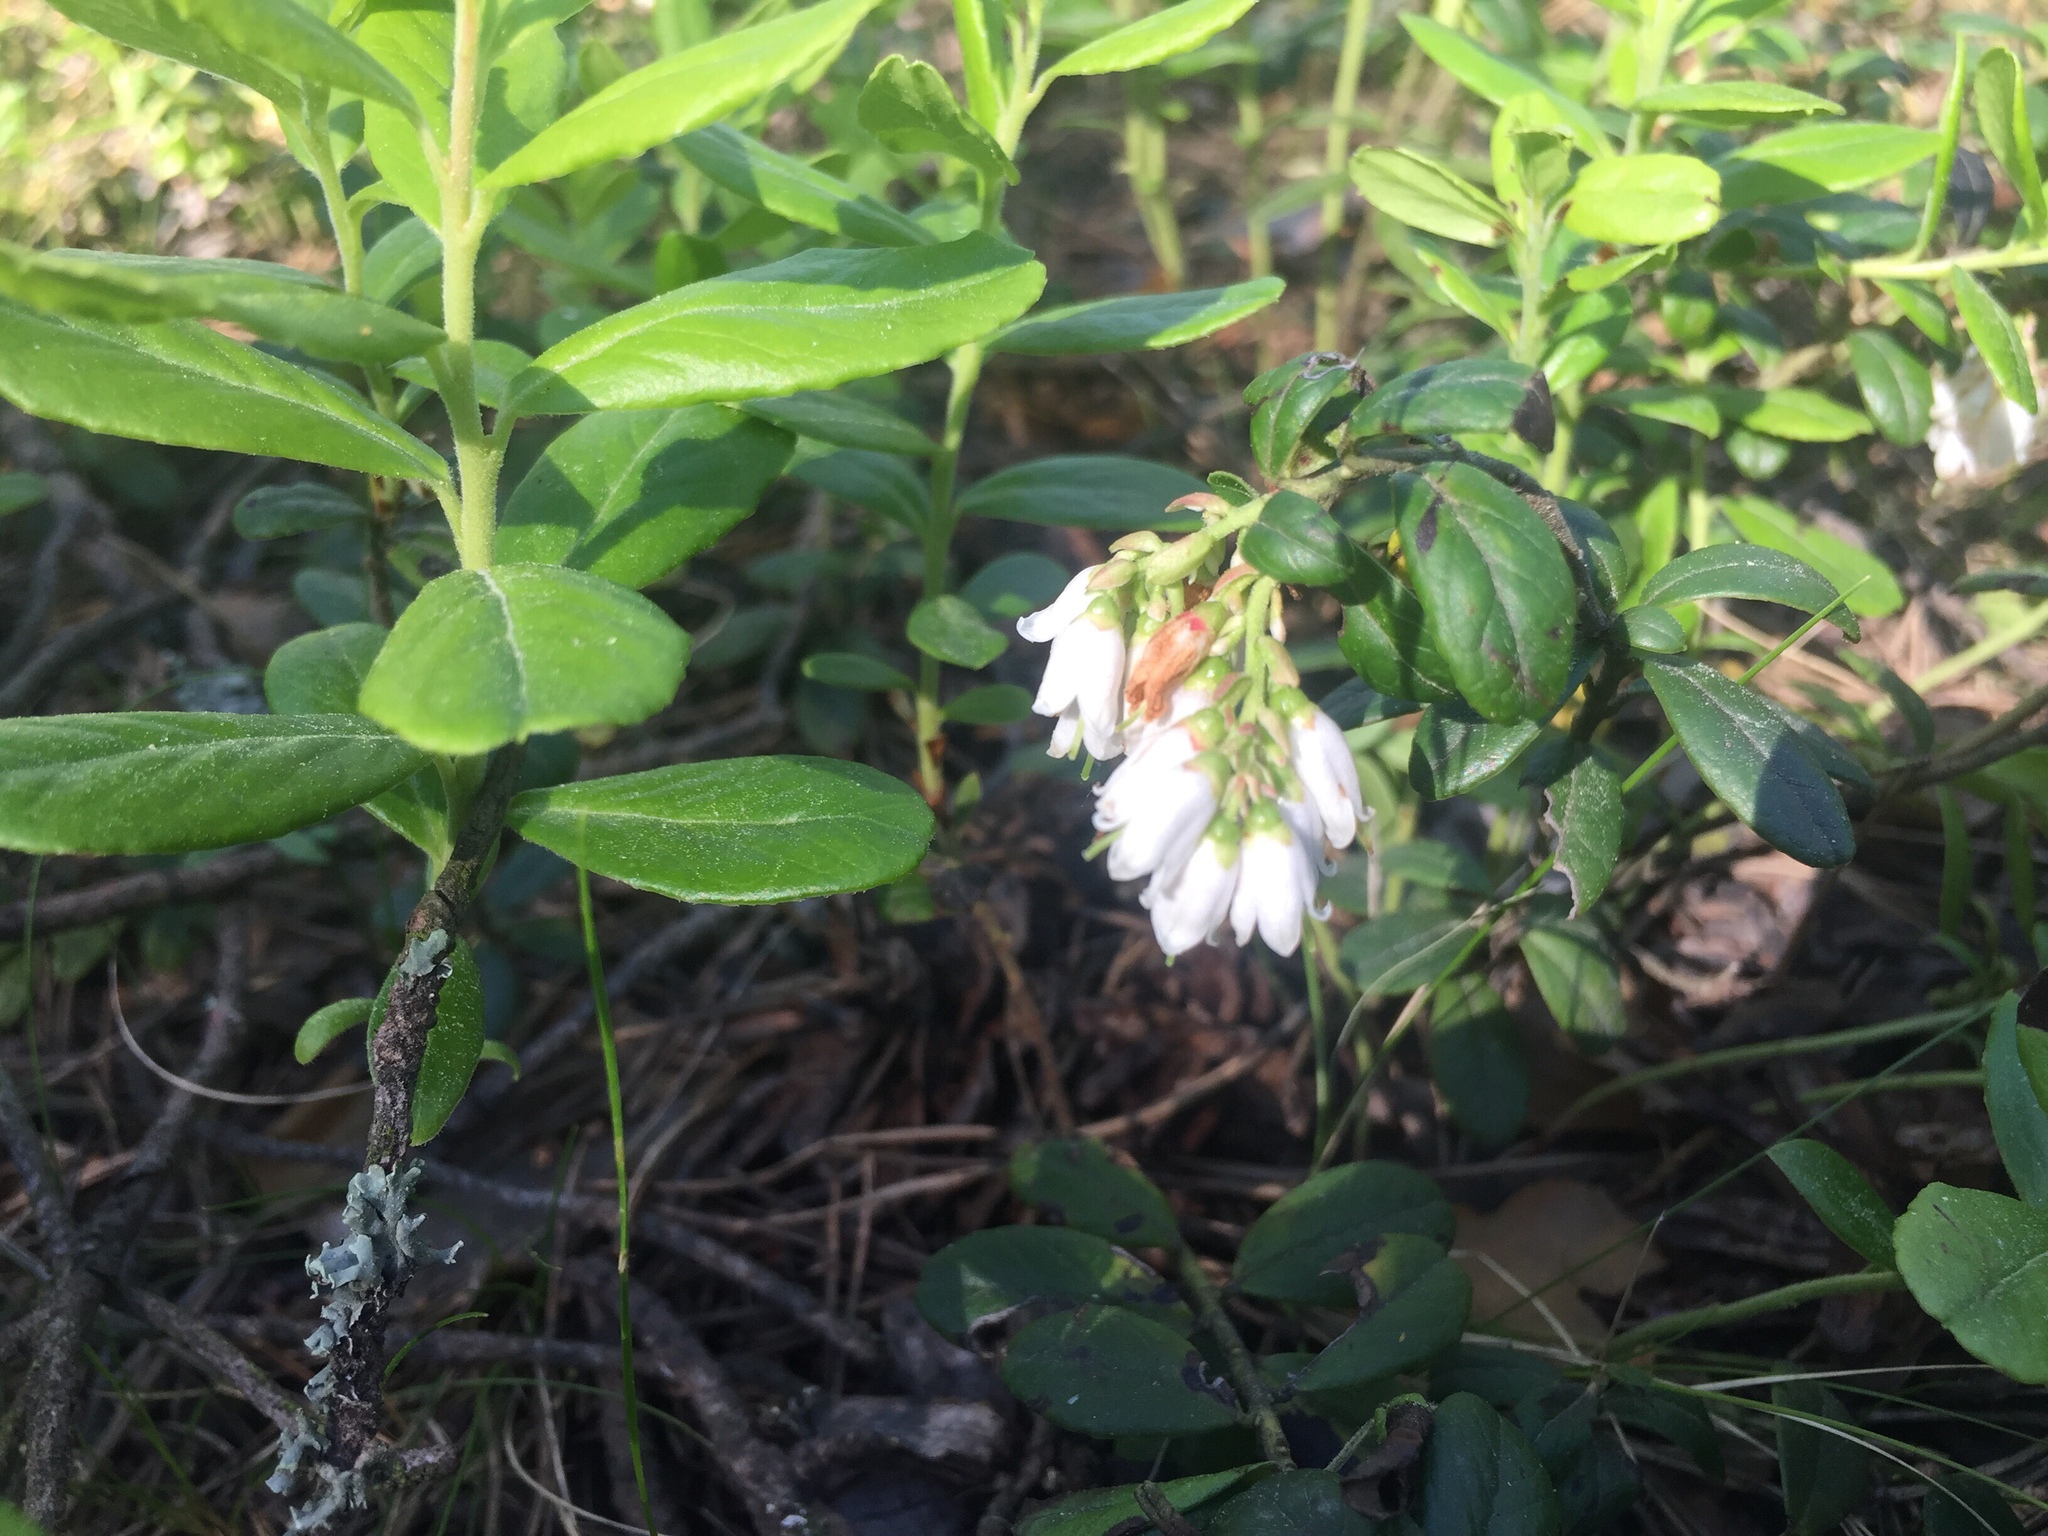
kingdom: Plantae
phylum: Tracheophyta
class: Magnoliopsida
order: Ericales
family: Ericaceae
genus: Vaccinium
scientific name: Vaccinium vitis-idaea
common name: Cowberry
